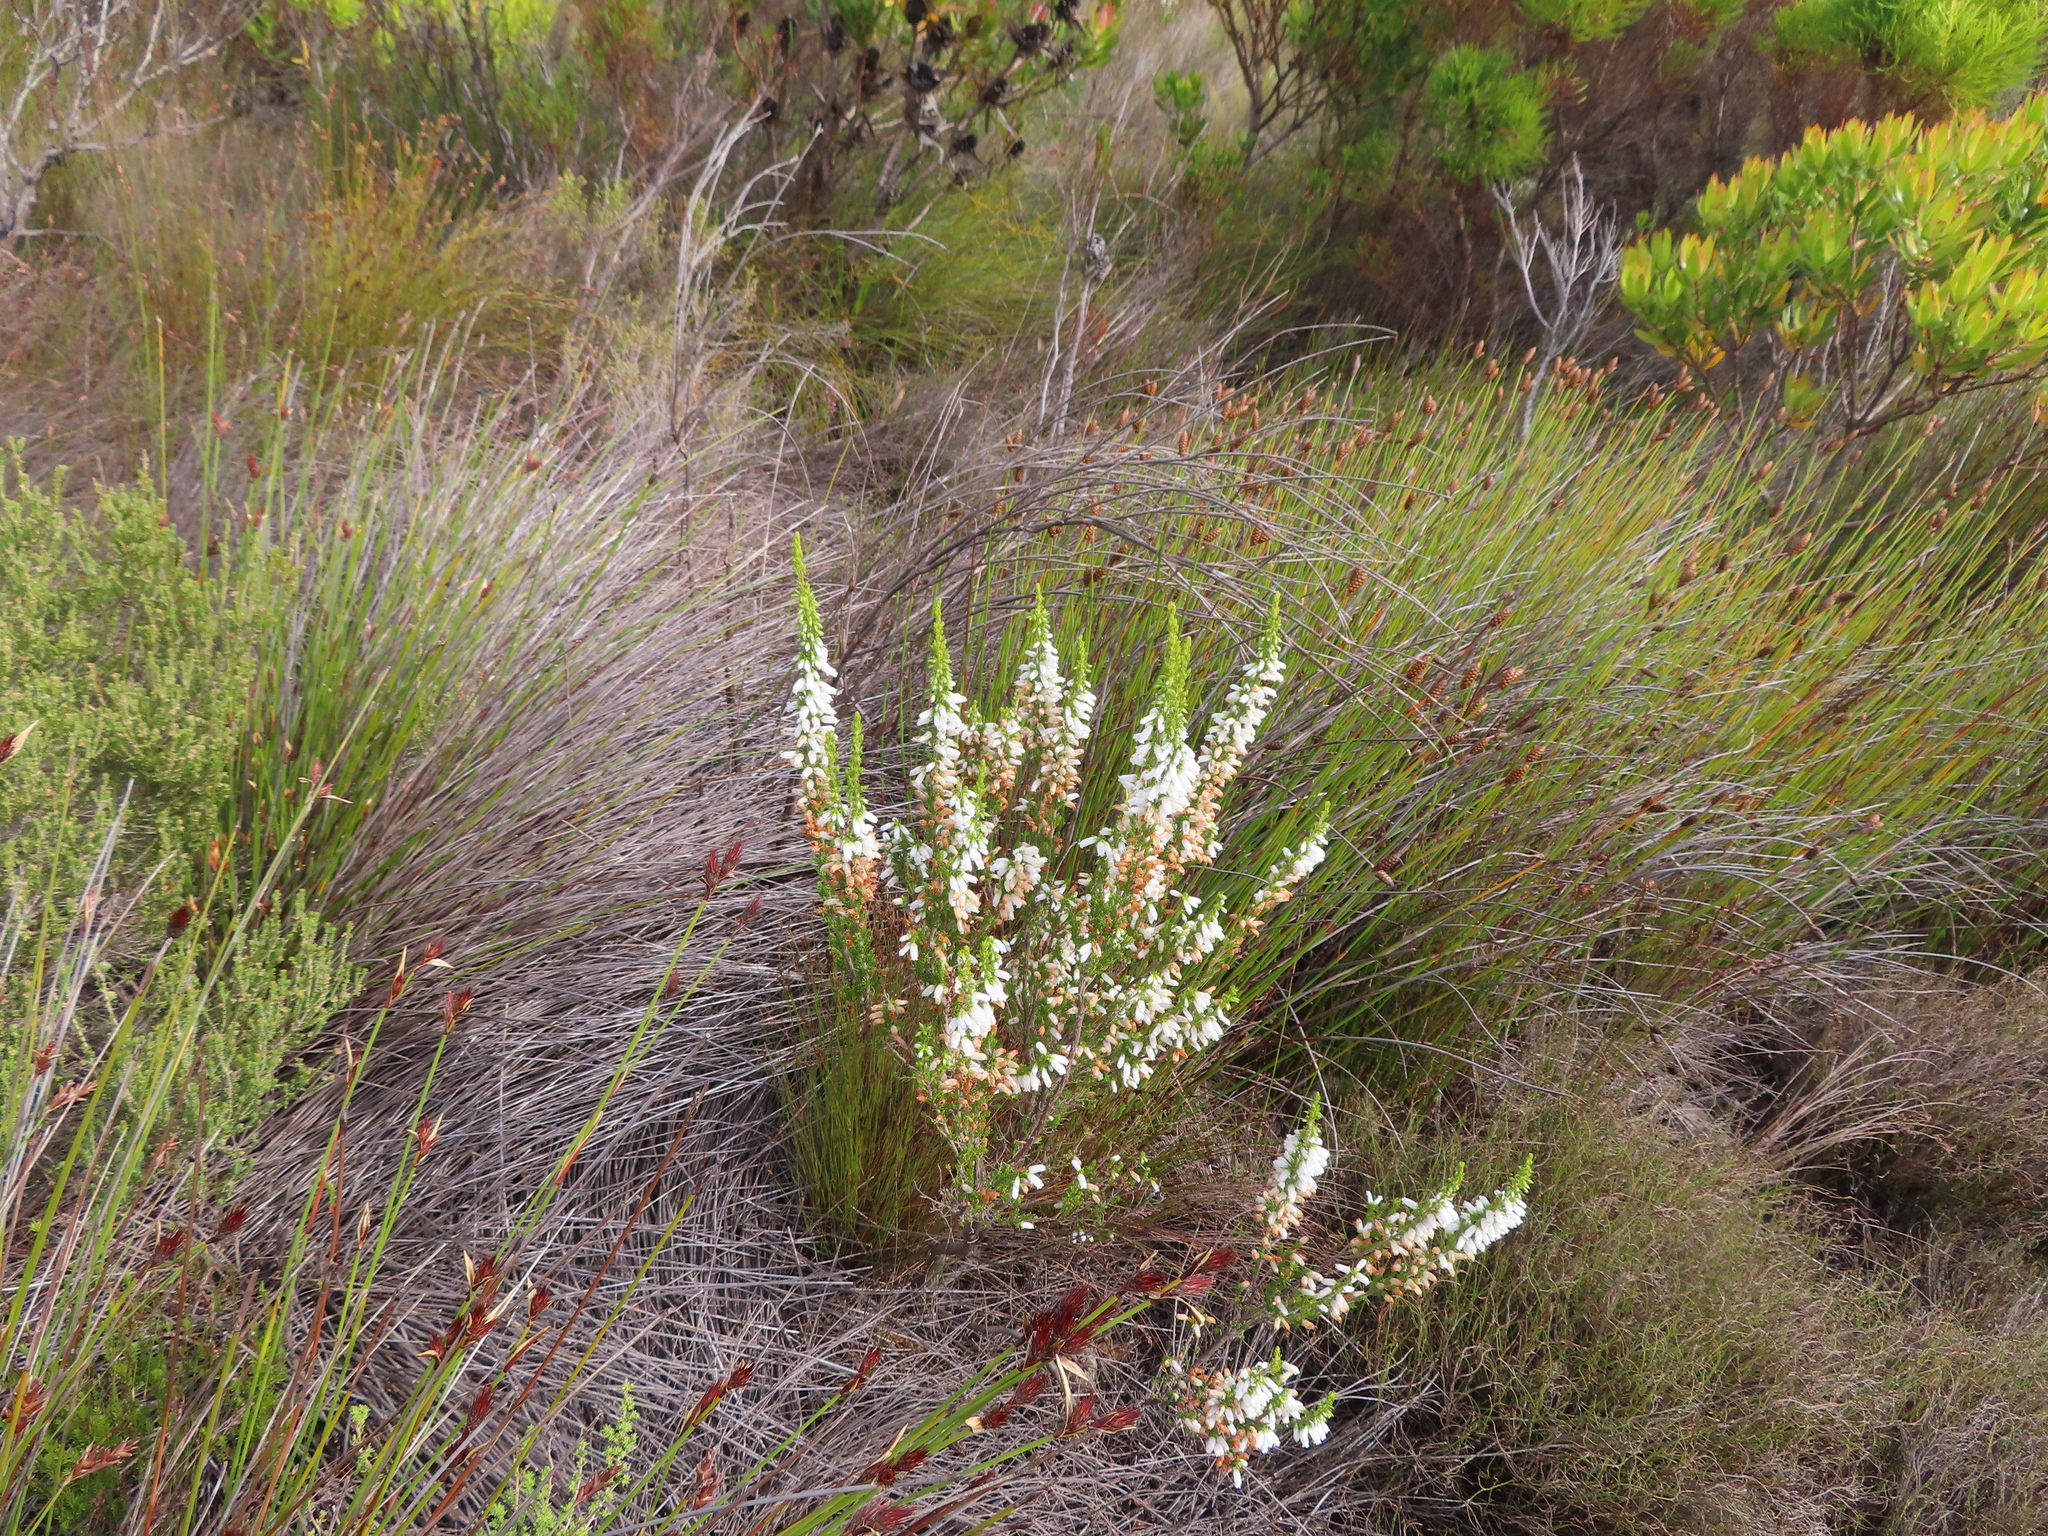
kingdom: Plantae
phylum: Tracheophyta
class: Magnoliopsida
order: Ericales
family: Ericaceae
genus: Erica
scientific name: Erica sitiens
